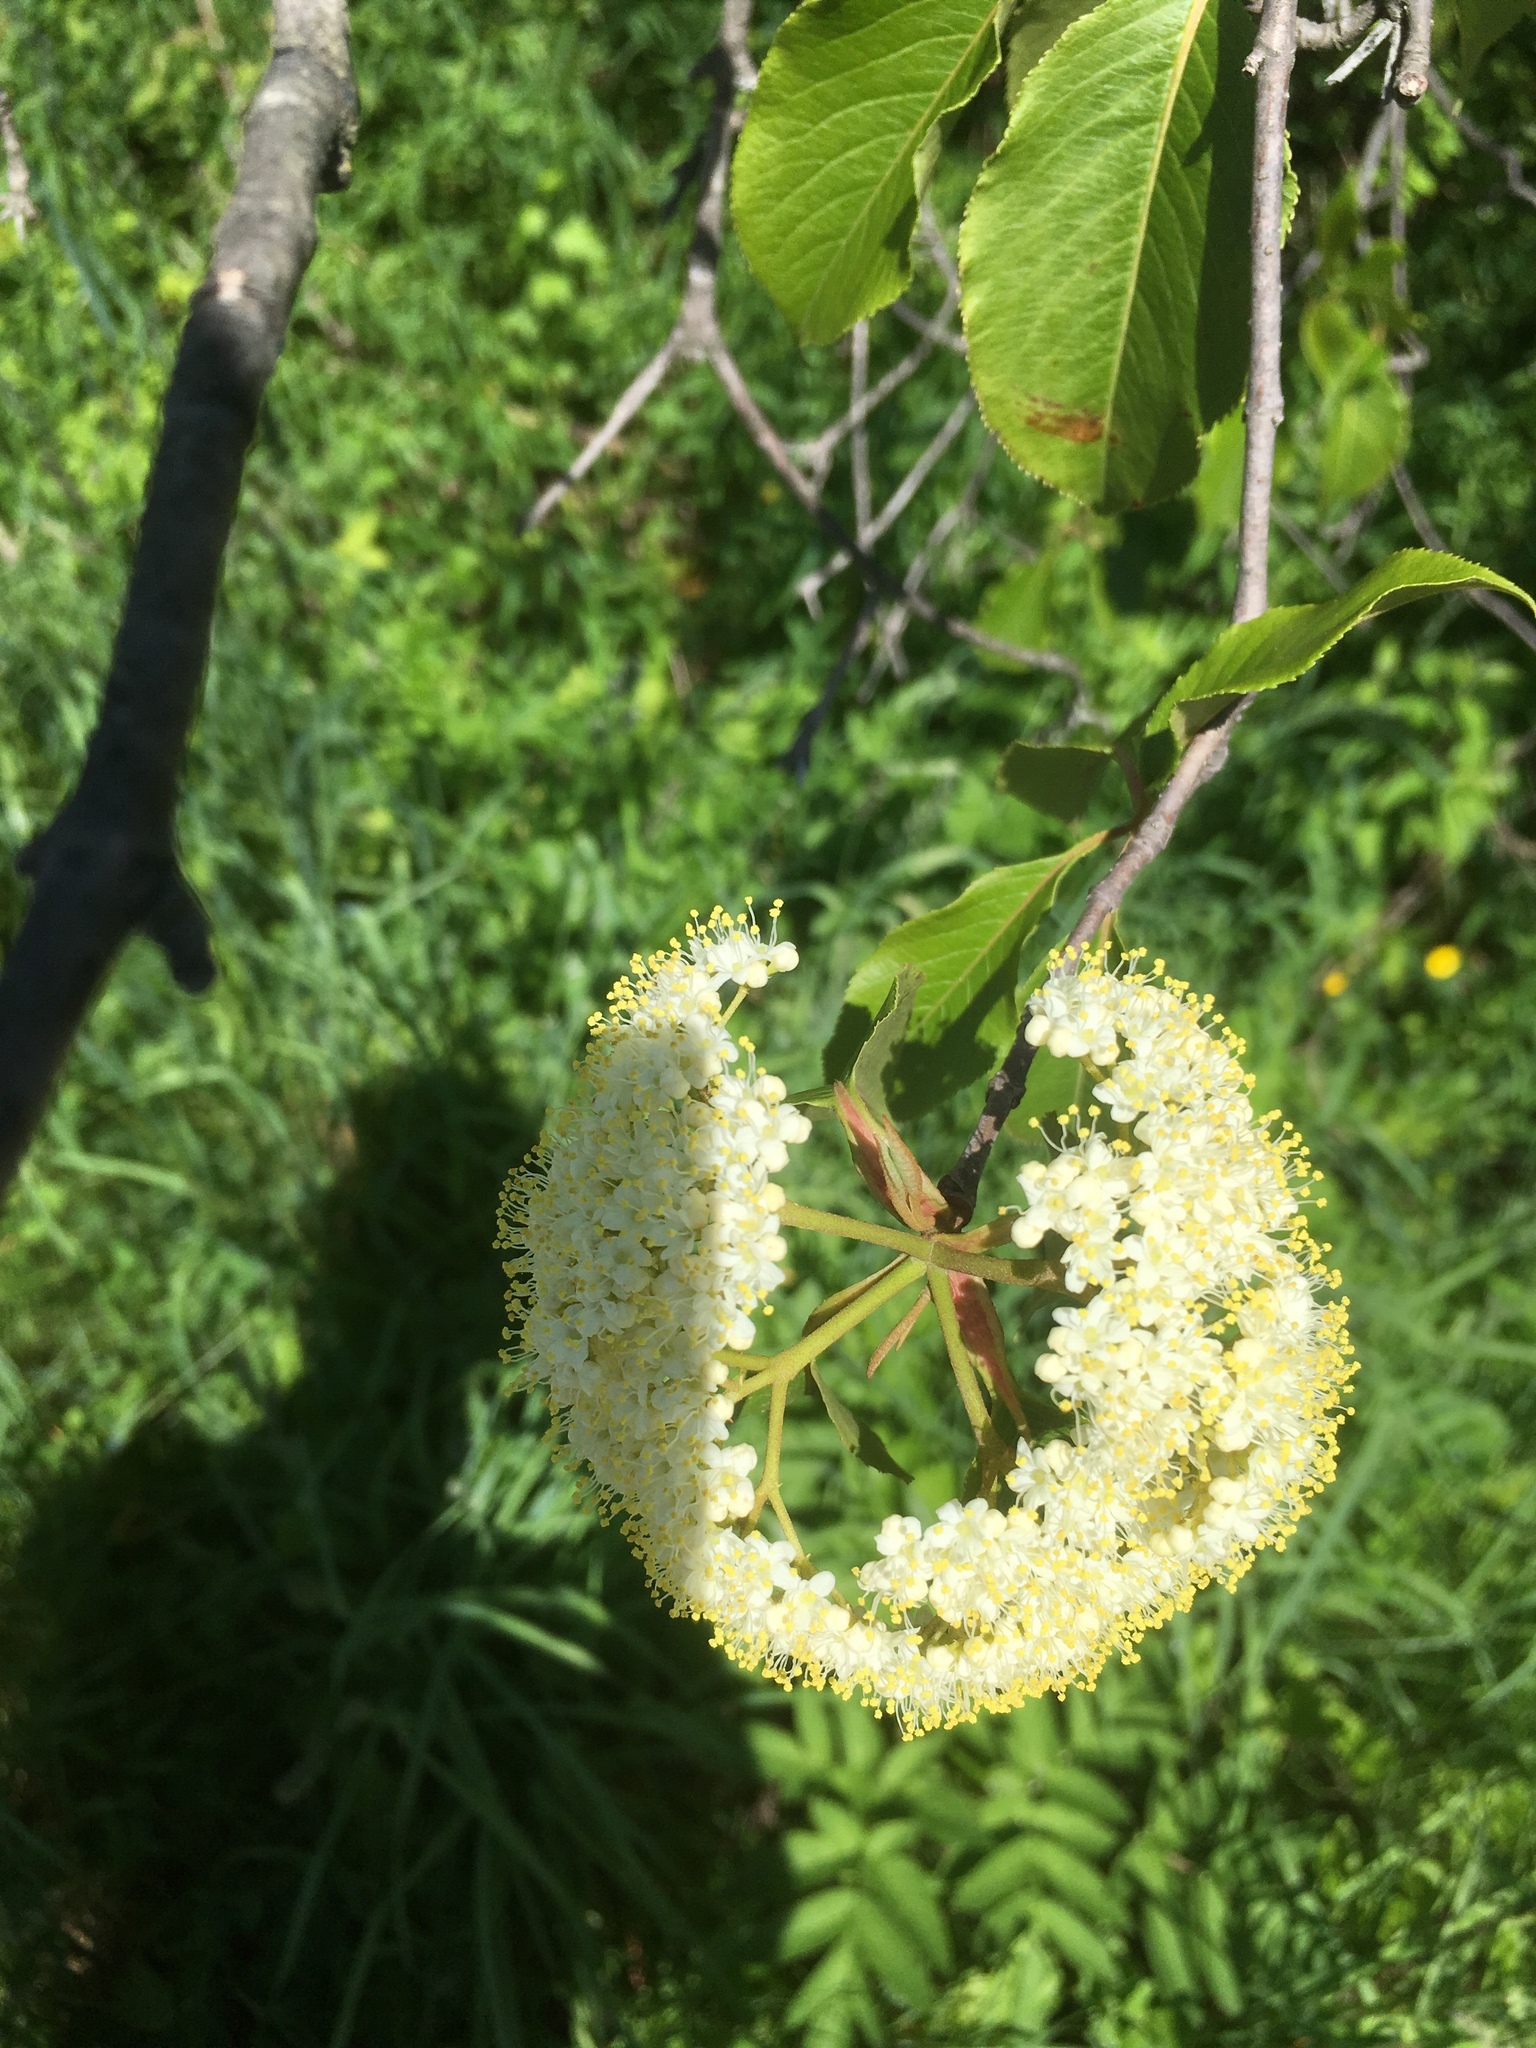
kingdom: Plantae
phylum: Tracheophyta
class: Magnoliopsida
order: Dipsacales
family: Viburnaceae
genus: Viburnum
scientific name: Viburnum lentago
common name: Black haw
